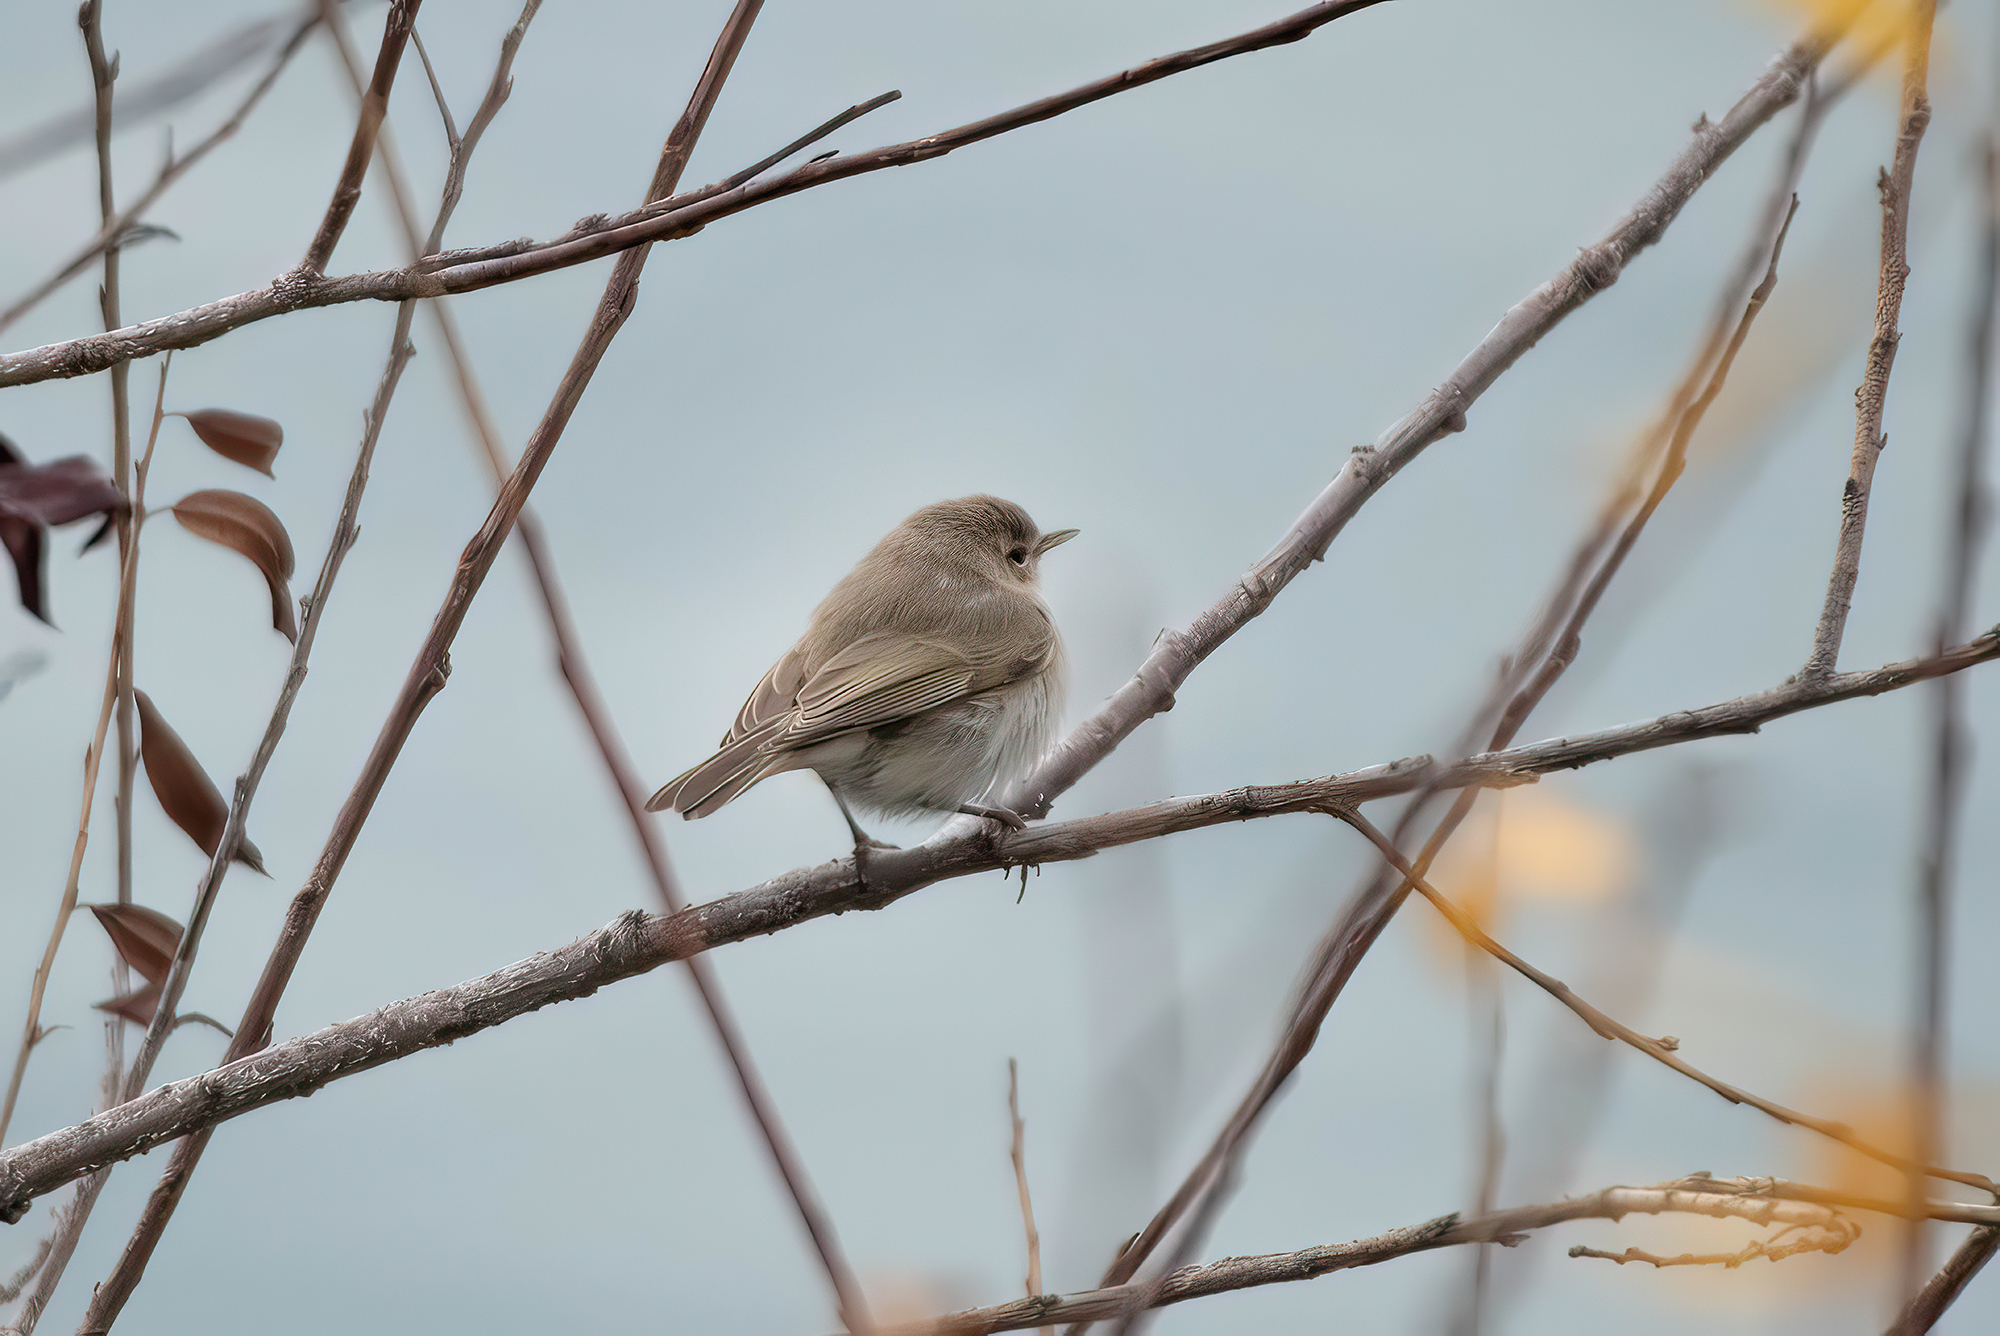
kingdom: Animalia
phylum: Chordata
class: Aves
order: Passeriformes
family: Phylloscopidae
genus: Phylloscopus
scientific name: Phylloscopus collybita
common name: Common chiffchaff
